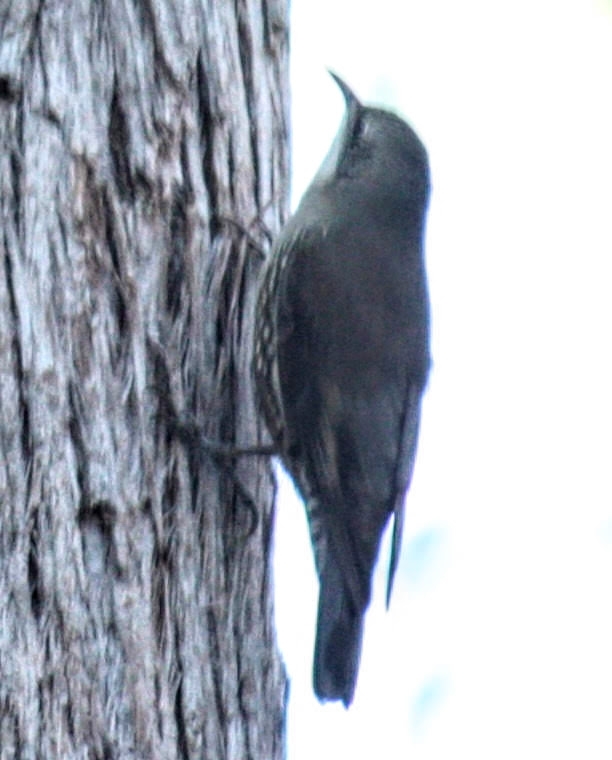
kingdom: Animalia
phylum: Chordata
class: Aves
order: Passeriformes
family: Climacteridae
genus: Cormobates
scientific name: Cormobates leucophaea
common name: White-throated treecreeper
